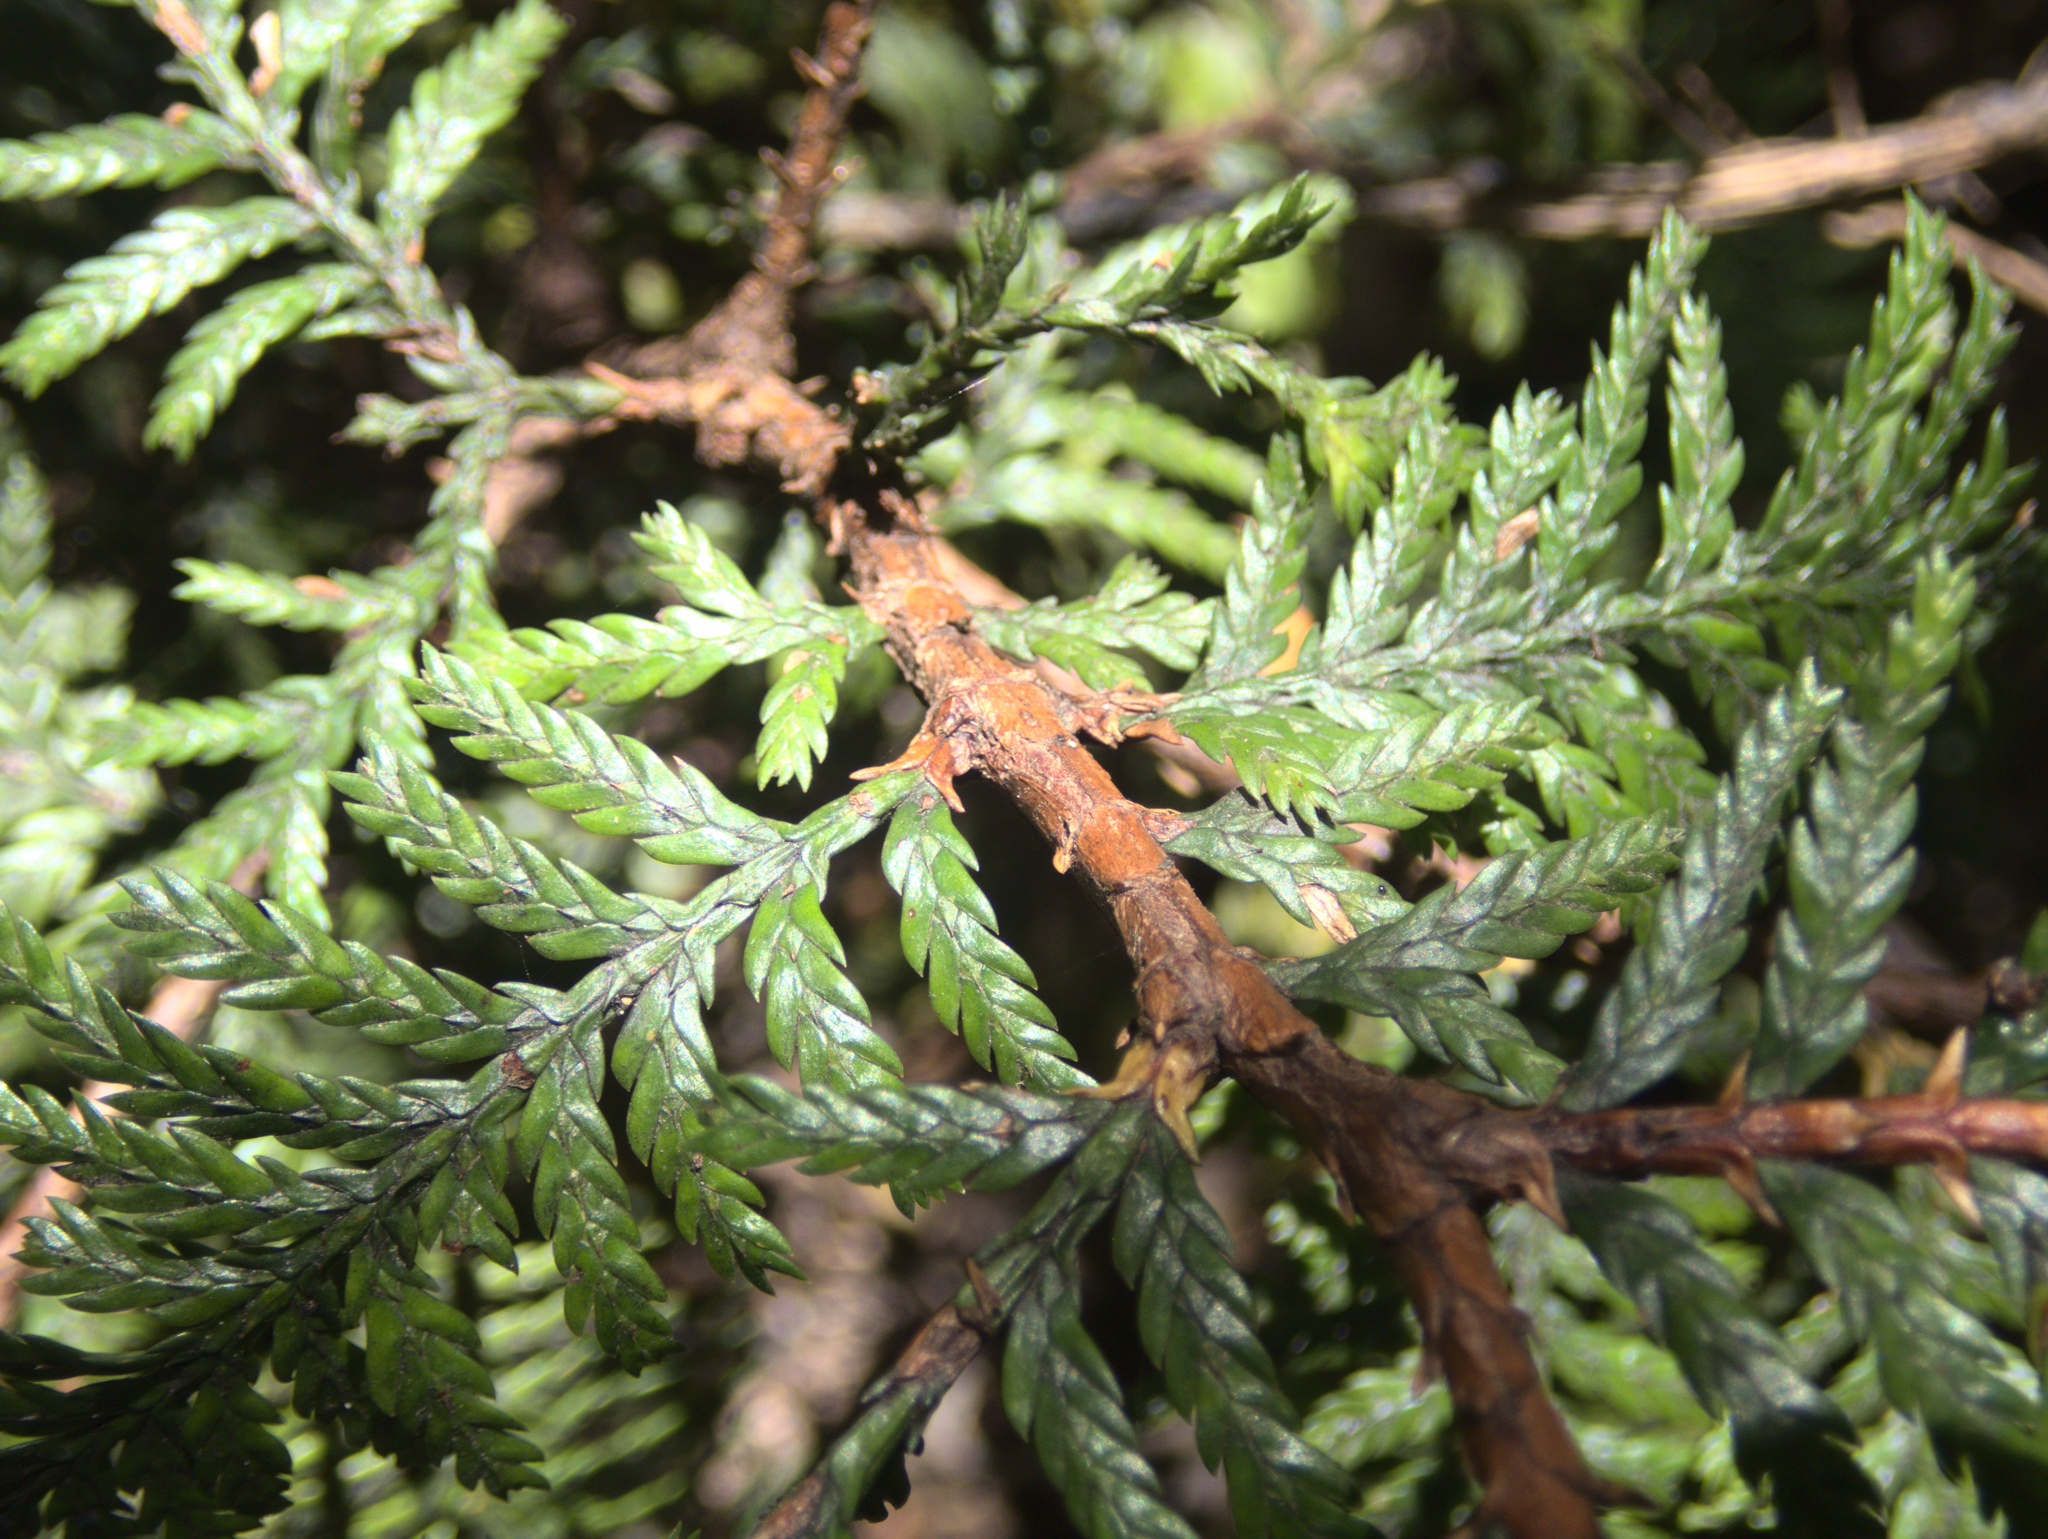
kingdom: Plantae
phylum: Tracheophyta
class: Pinopsida
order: Pinales
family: Cupressaceae
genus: Libocedrus
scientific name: Libocedrus plumosa
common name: New zealand cedar
